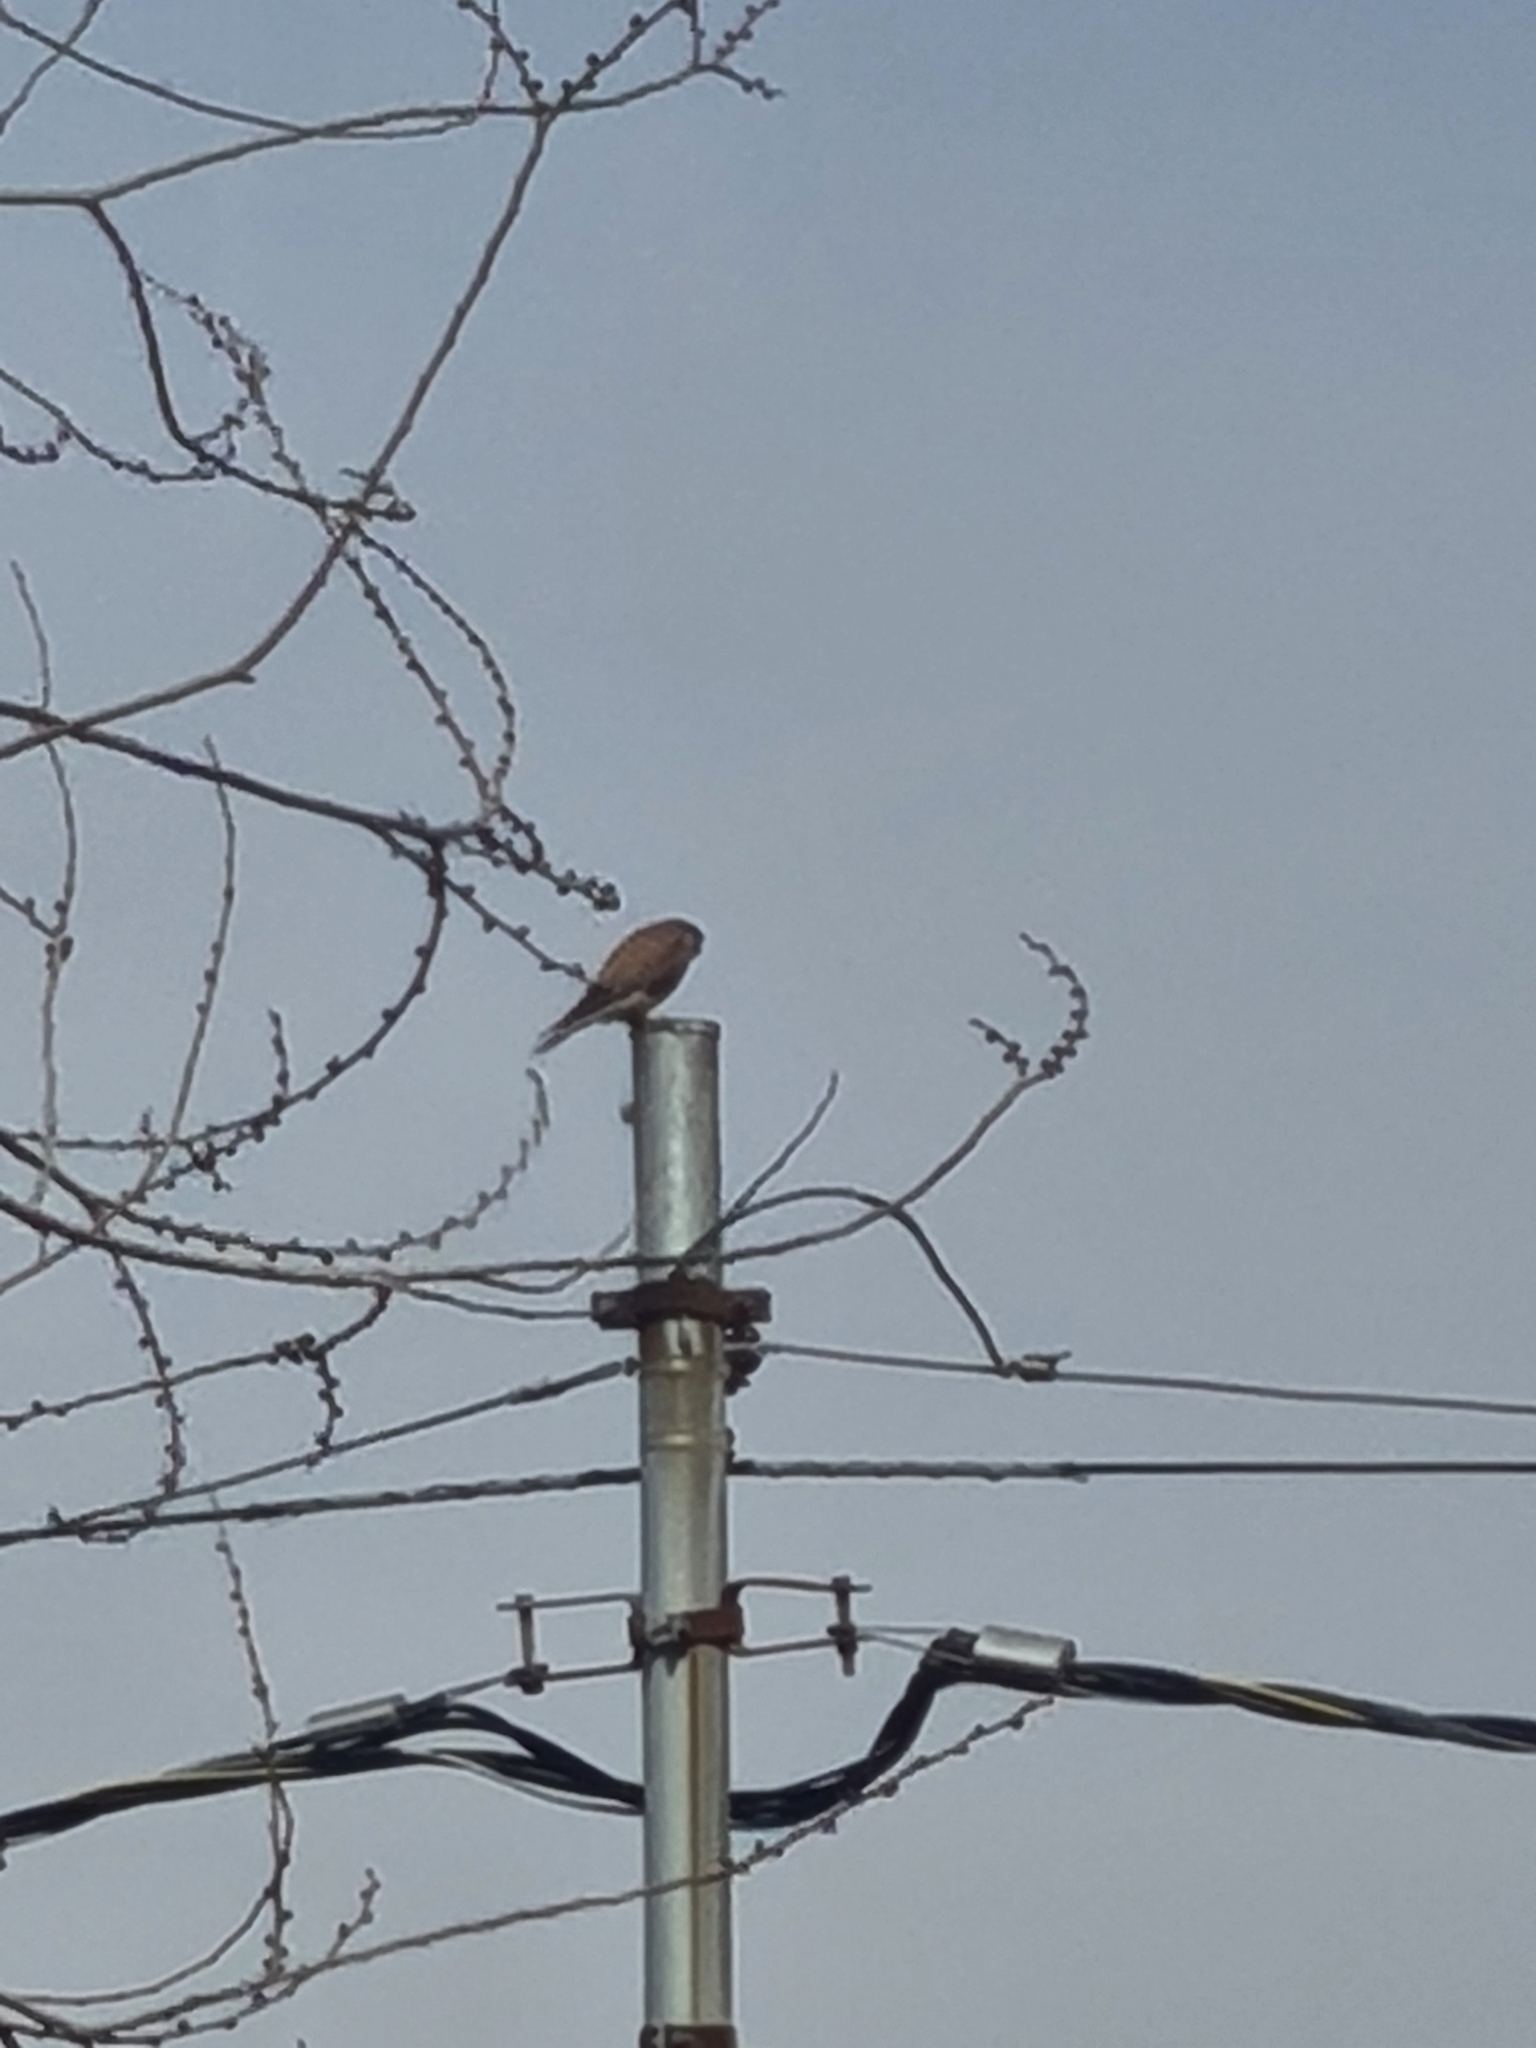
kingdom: Animalia
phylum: Chordata
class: Aves
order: Falconiformes
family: Falconidae
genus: Falco
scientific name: Falco tinnunculus
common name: Common kestrel
